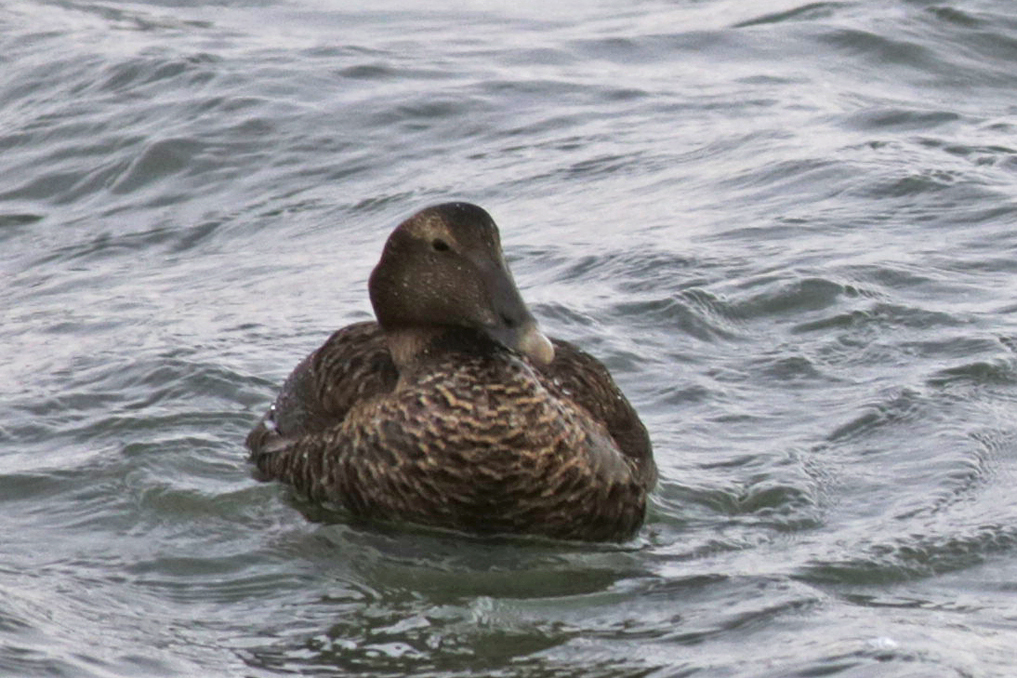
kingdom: Animalia
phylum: Chordata
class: Aves
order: Anseriformes
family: Anatidae
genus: Somateria
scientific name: Somateria mollissima
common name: Common eider
